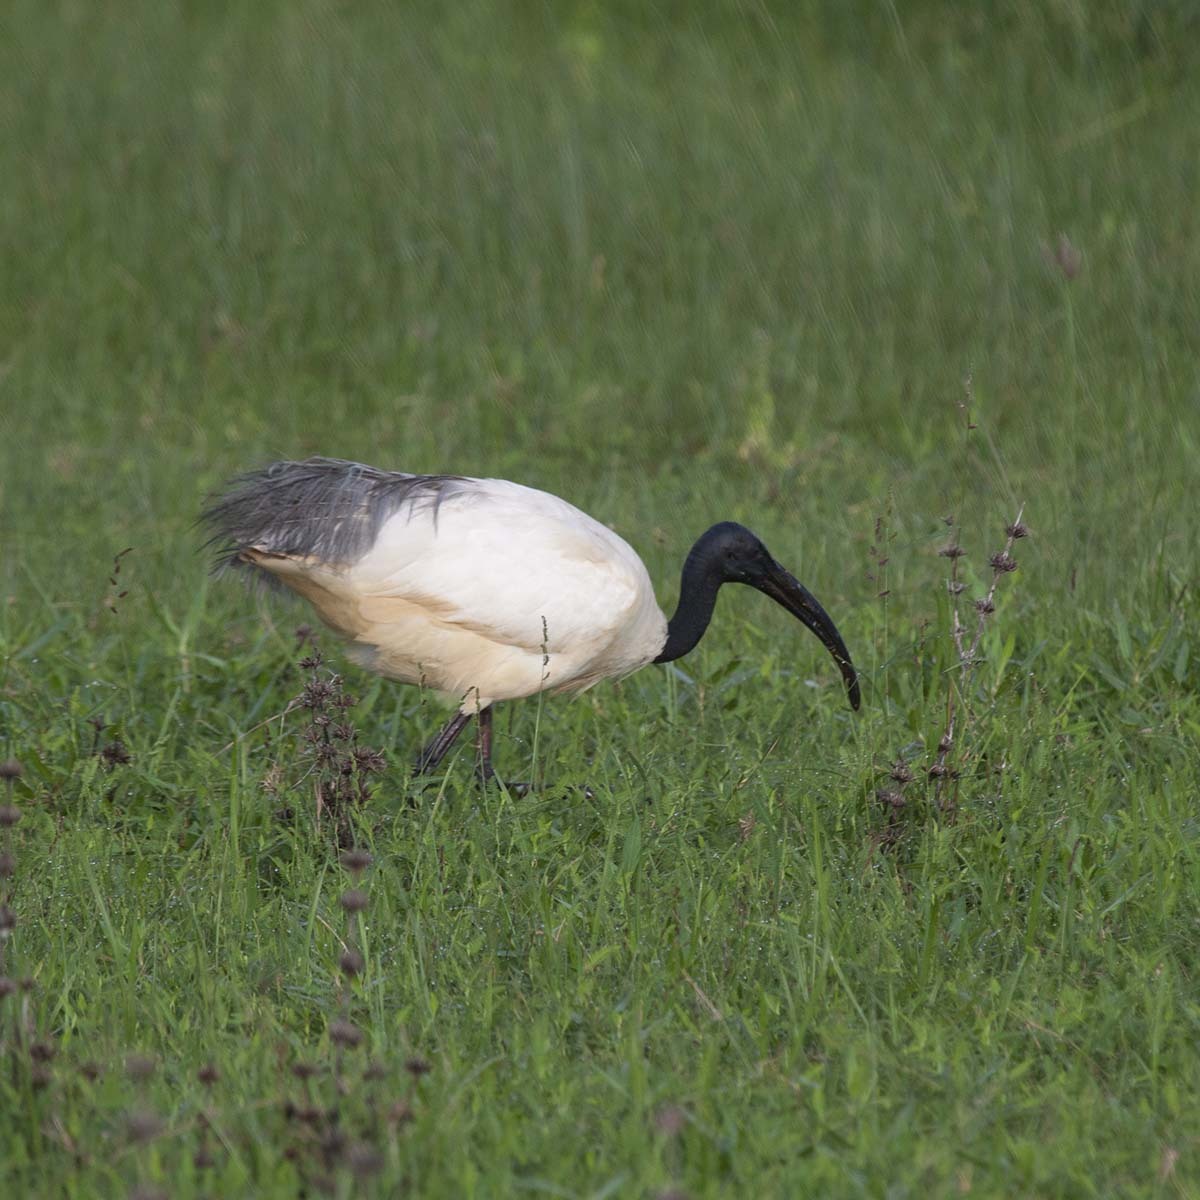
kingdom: Animalia
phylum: Chordata
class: Aves
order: Pelecaniformes
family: Threskiornithidae
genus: Threskiornis
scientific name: Threskiornis melanocephalus
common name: Black-headed ibis
